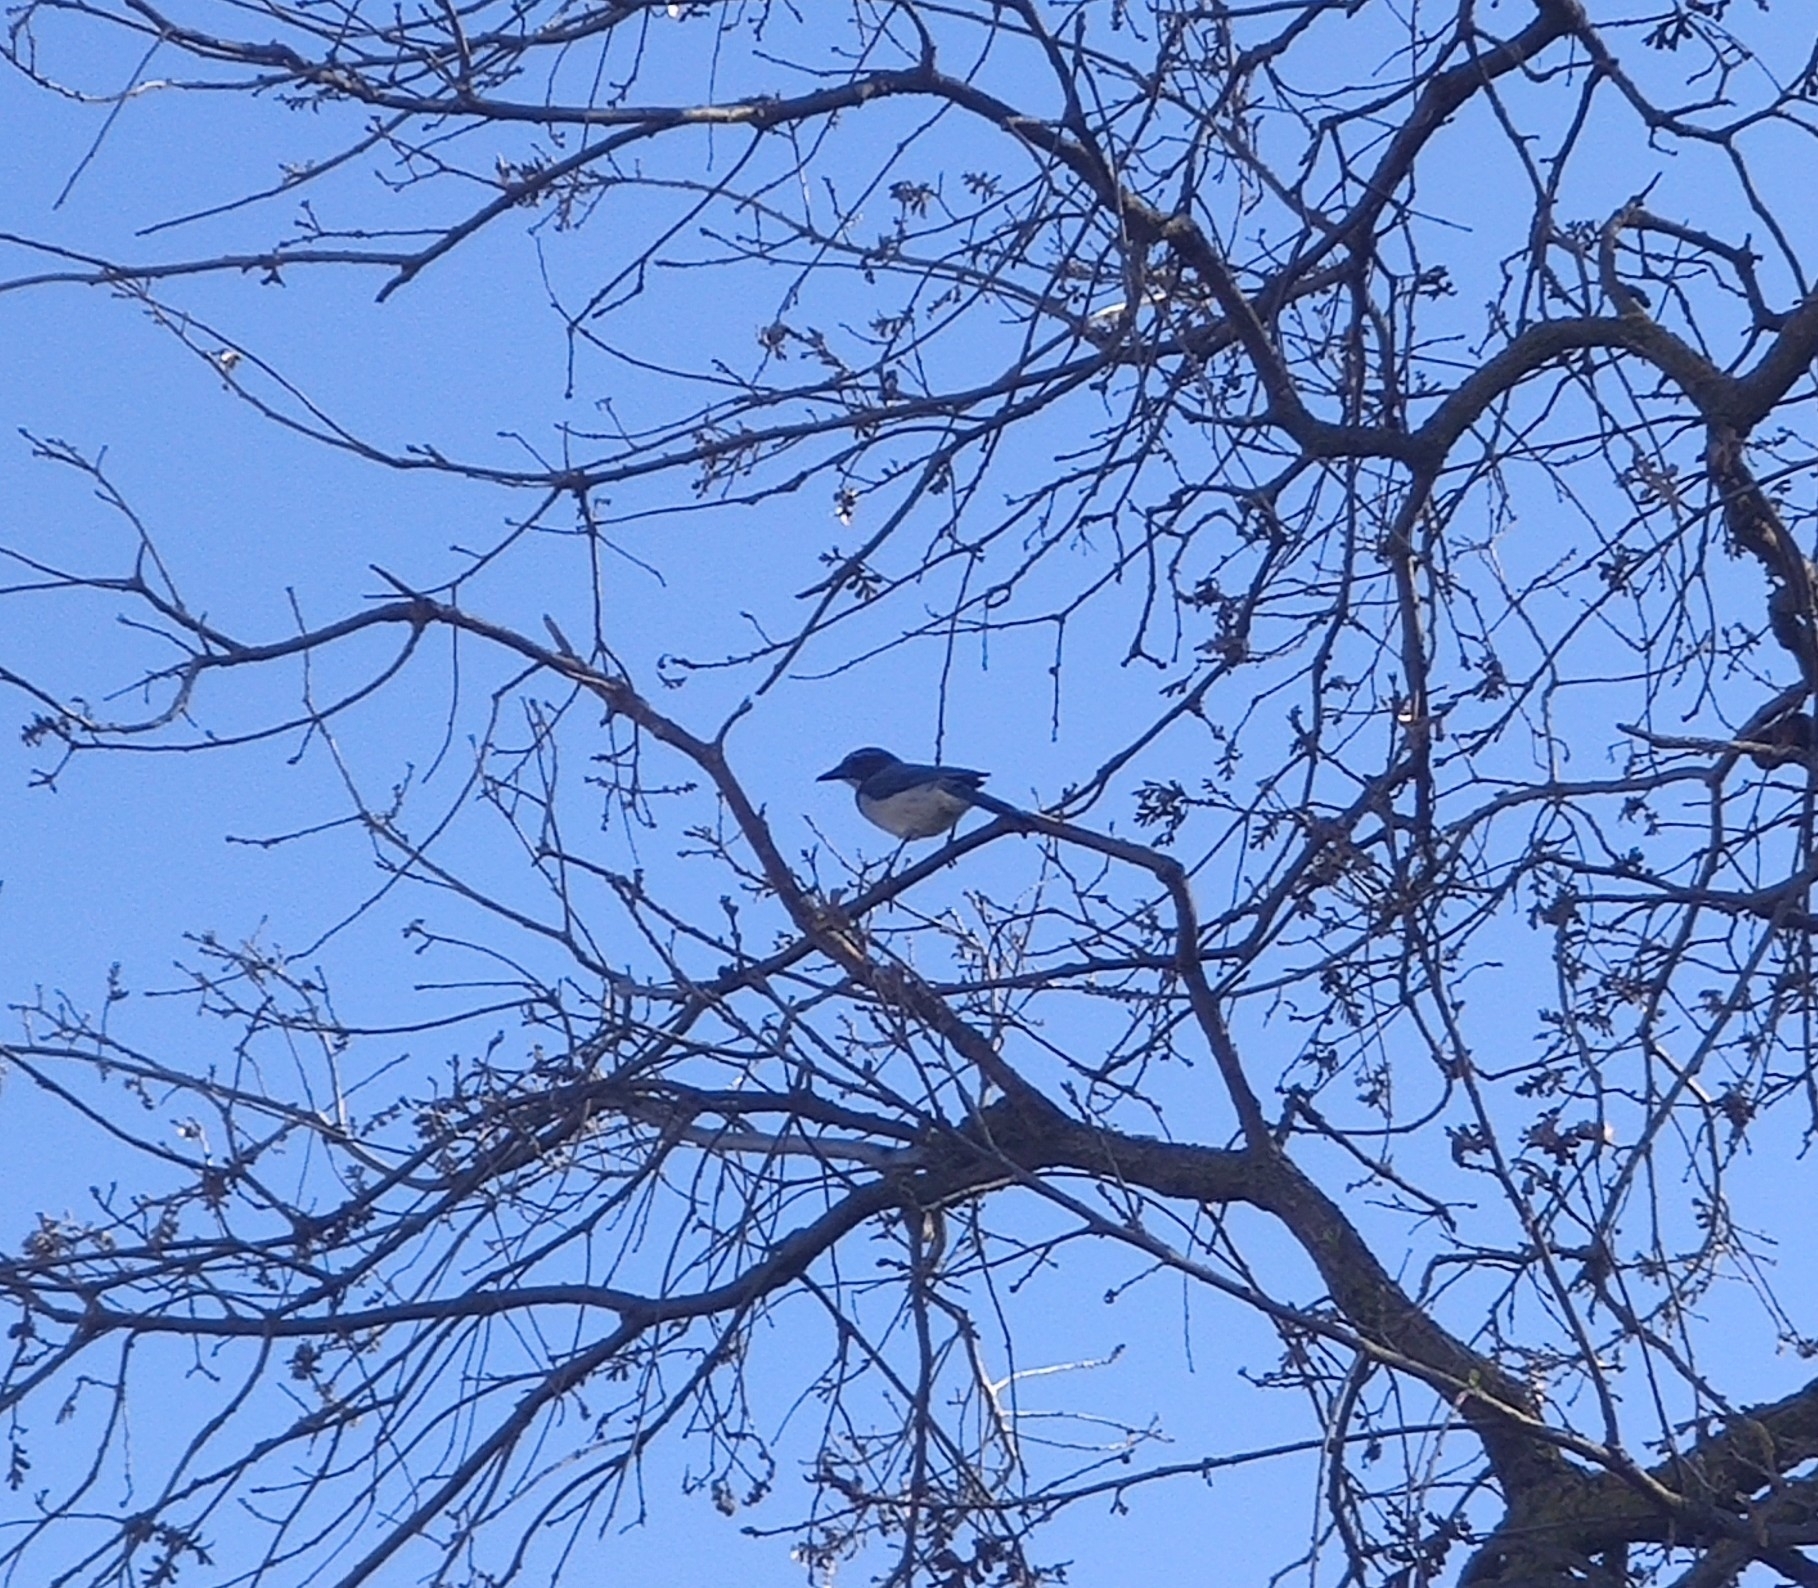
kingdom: Animalia
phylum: Chordata
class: Aves
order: Passeriformes
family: Corvidae
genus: Aphelocoma
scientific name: Aphelocoma californica
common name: California scrub-jay
